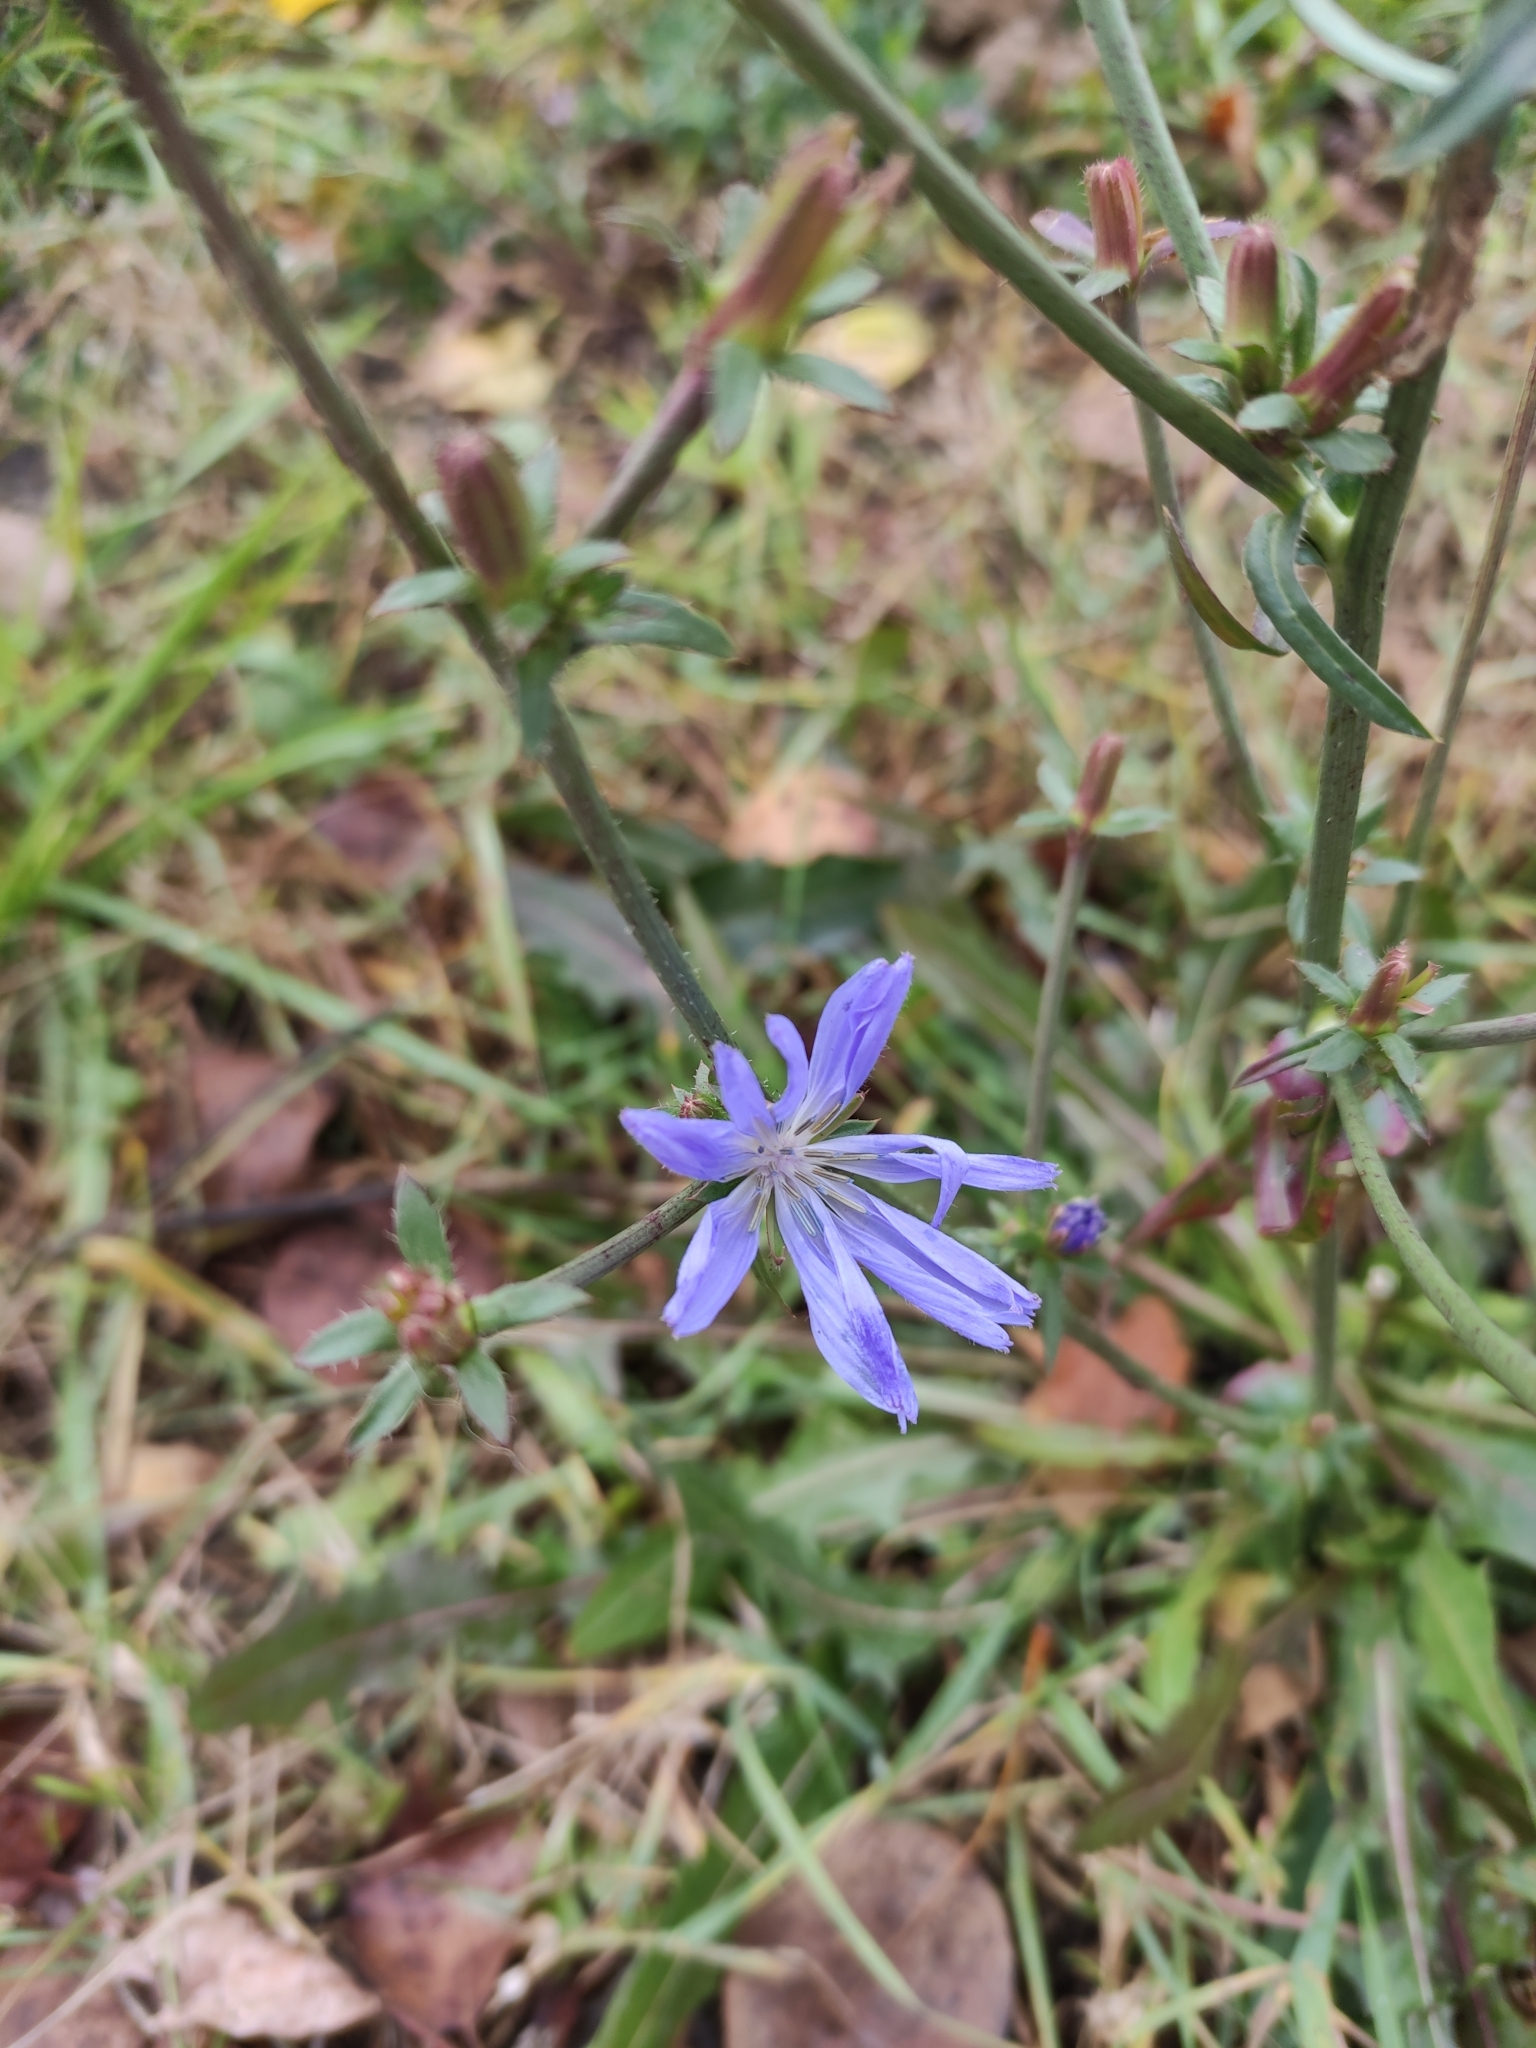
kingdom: Plantae
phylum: Tracheophyta
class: Magnoliopsida
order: Asterales
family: Asteraceae
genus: Cichorium
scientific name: Cichorium intybus
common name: Chicory
